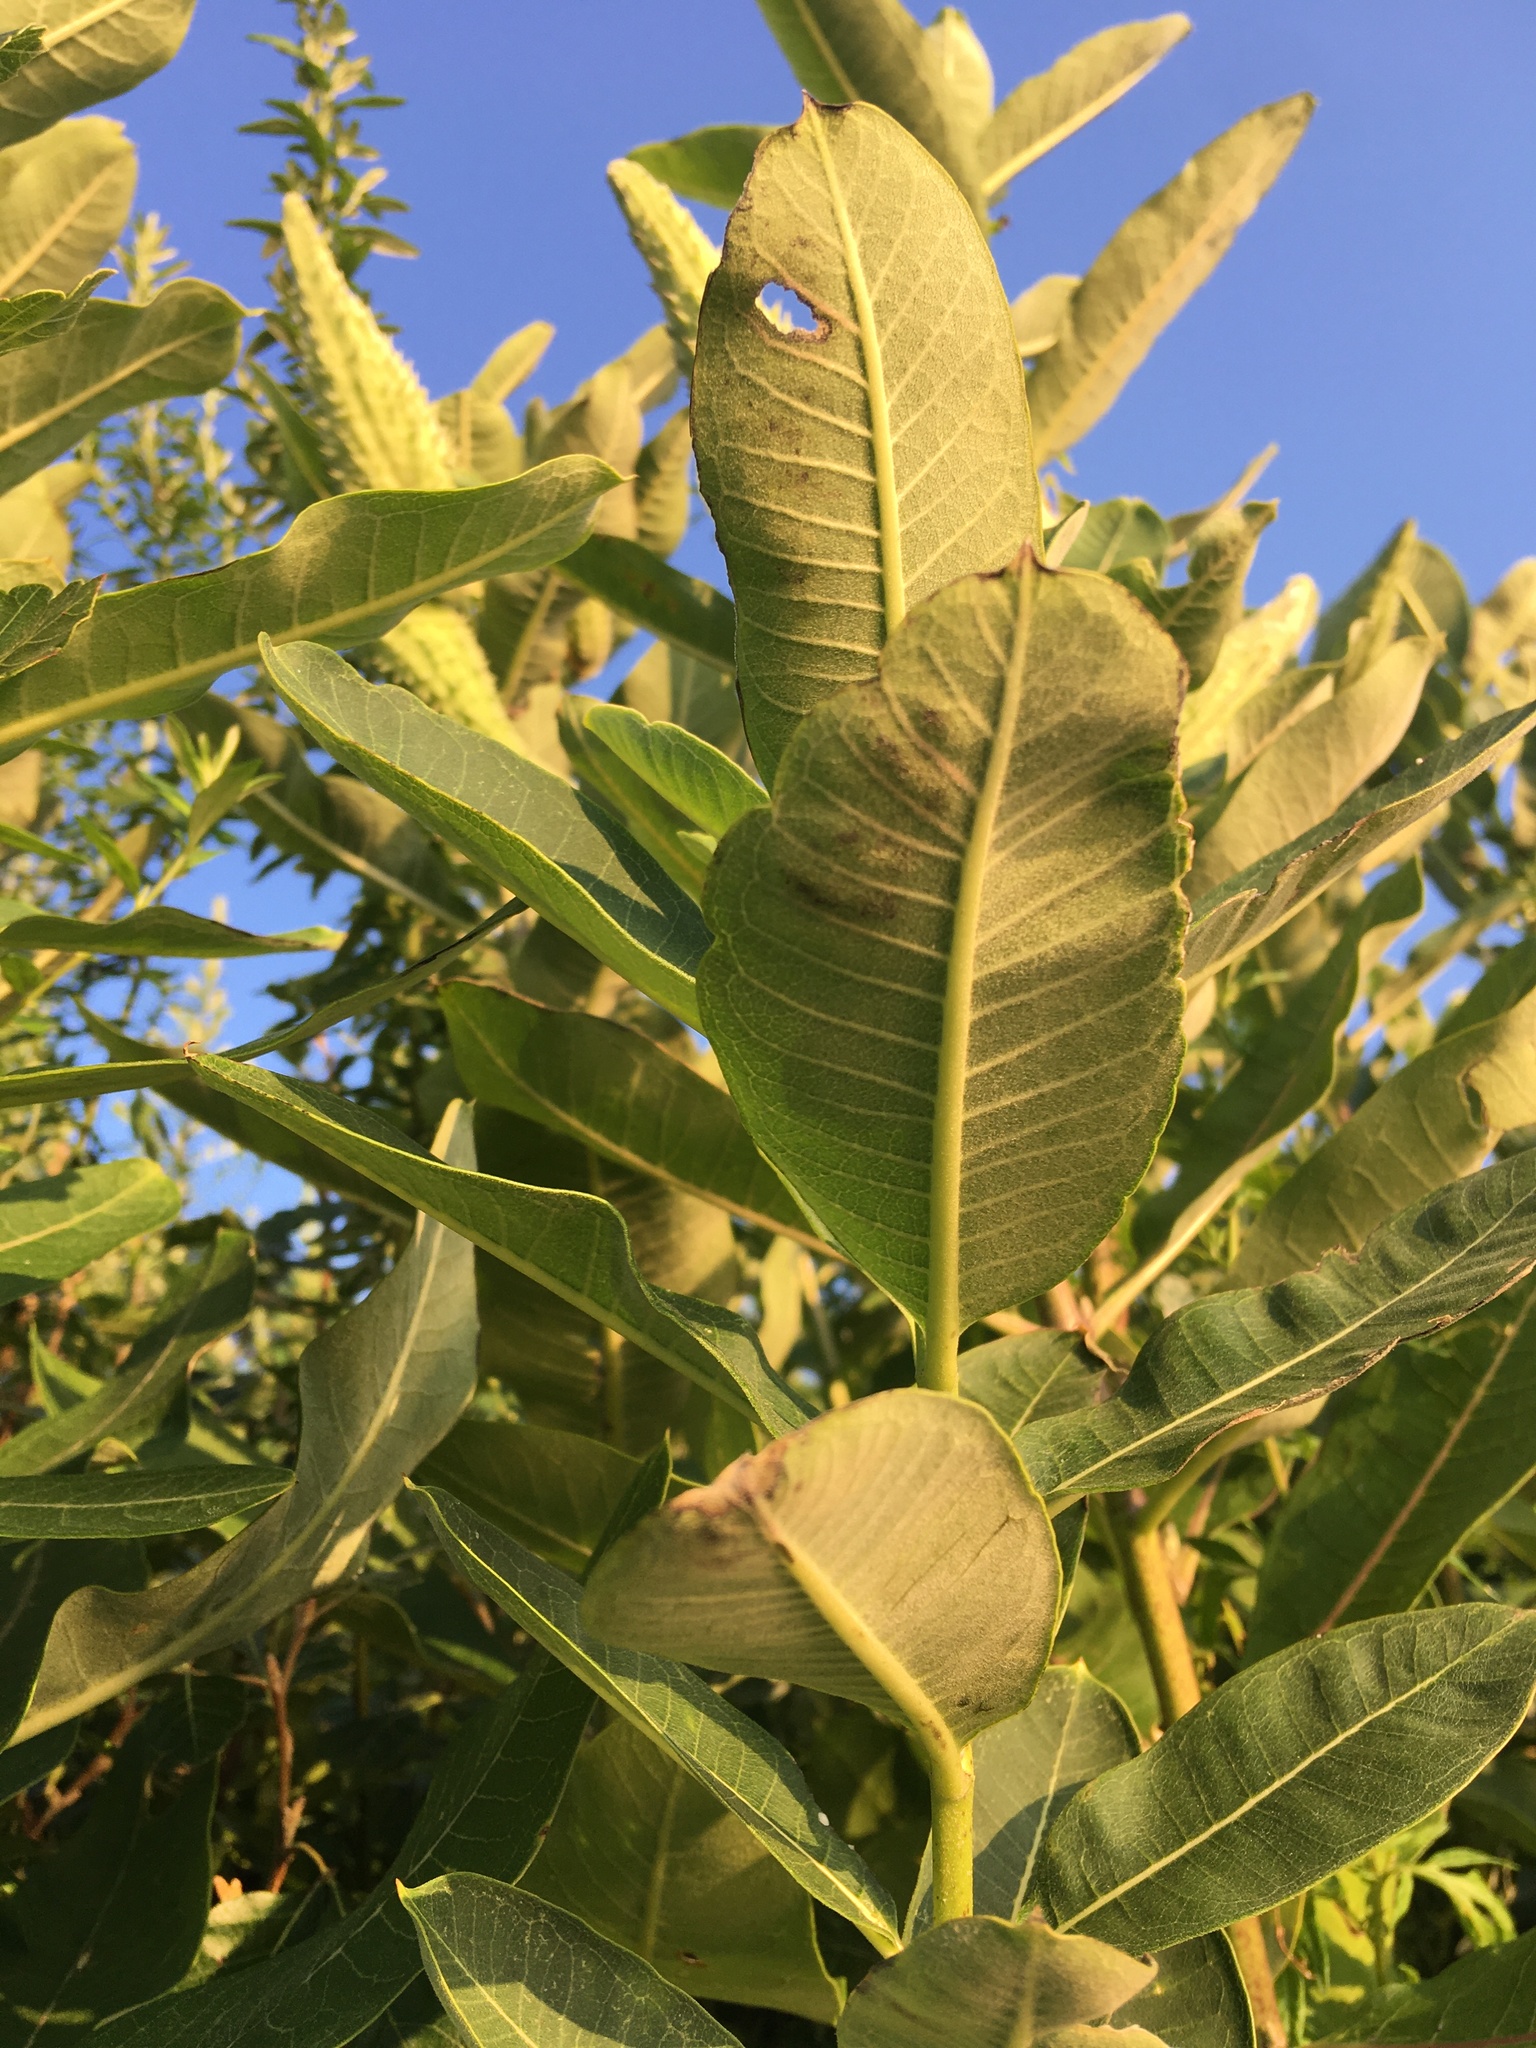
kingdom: Plantae
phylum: Tracheophyta
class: Magnoliopsida
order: Gentianales
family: Apocynaceae
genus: Asclepias
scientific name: Asclepias syriaca
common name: Common milkweed
